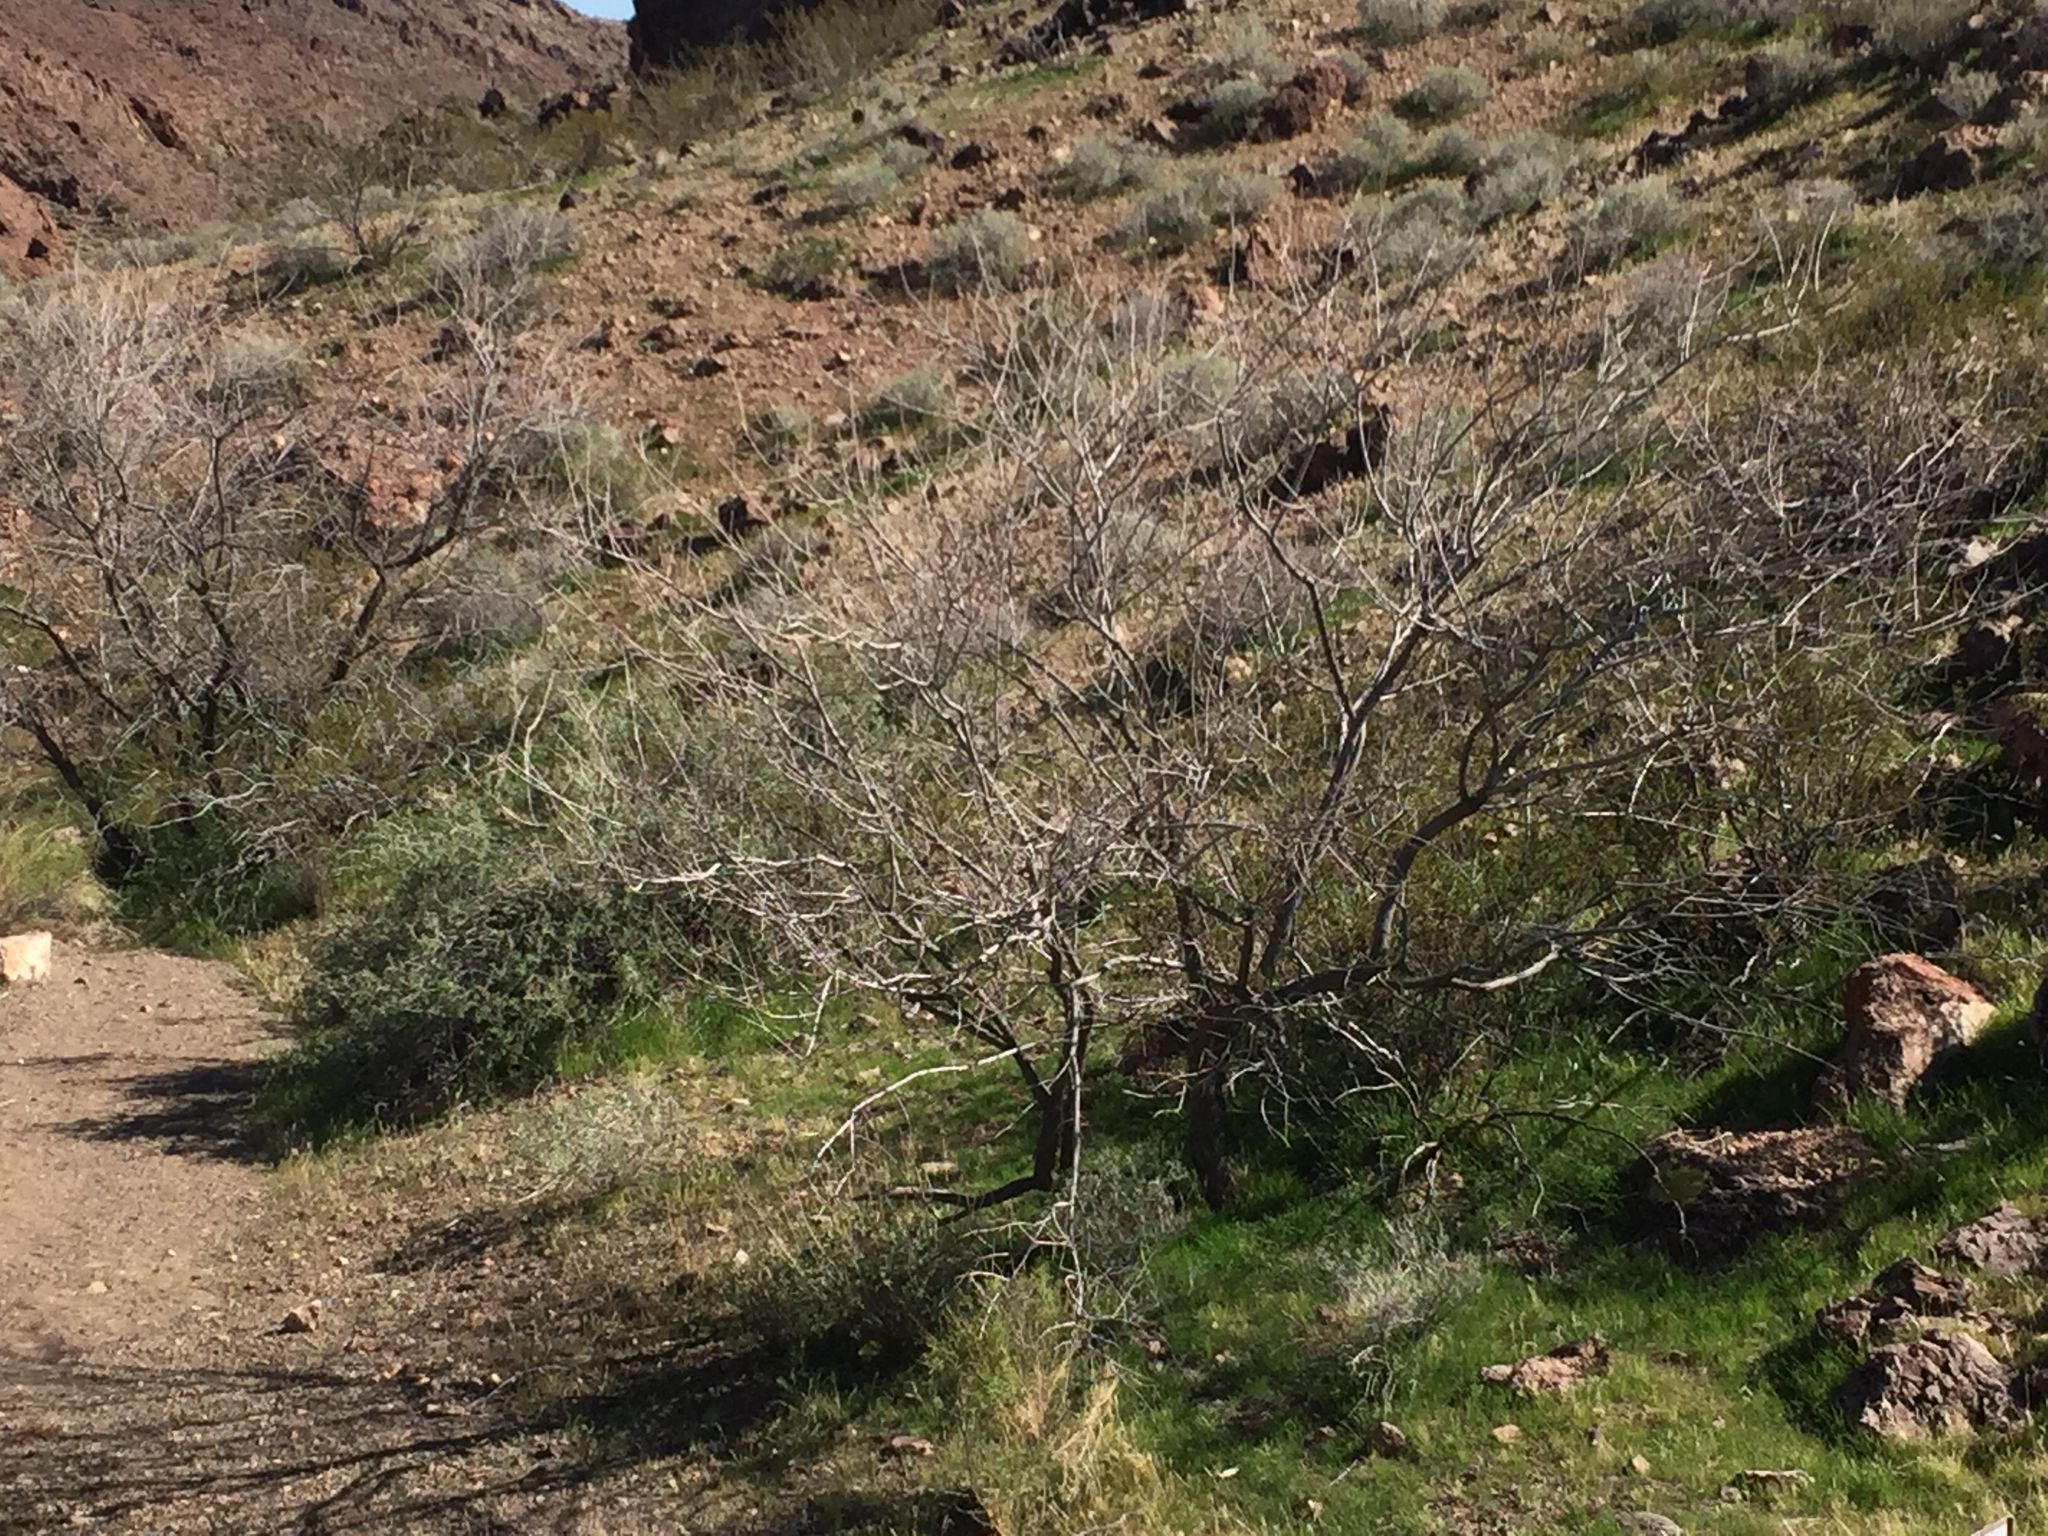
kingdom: Plantae
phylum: Tracheophyta
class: Magnoliopsida
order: Fabales
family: Fabaceae
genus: Senegalia
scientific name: Senegalia greggii
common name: Texas-mimosa
